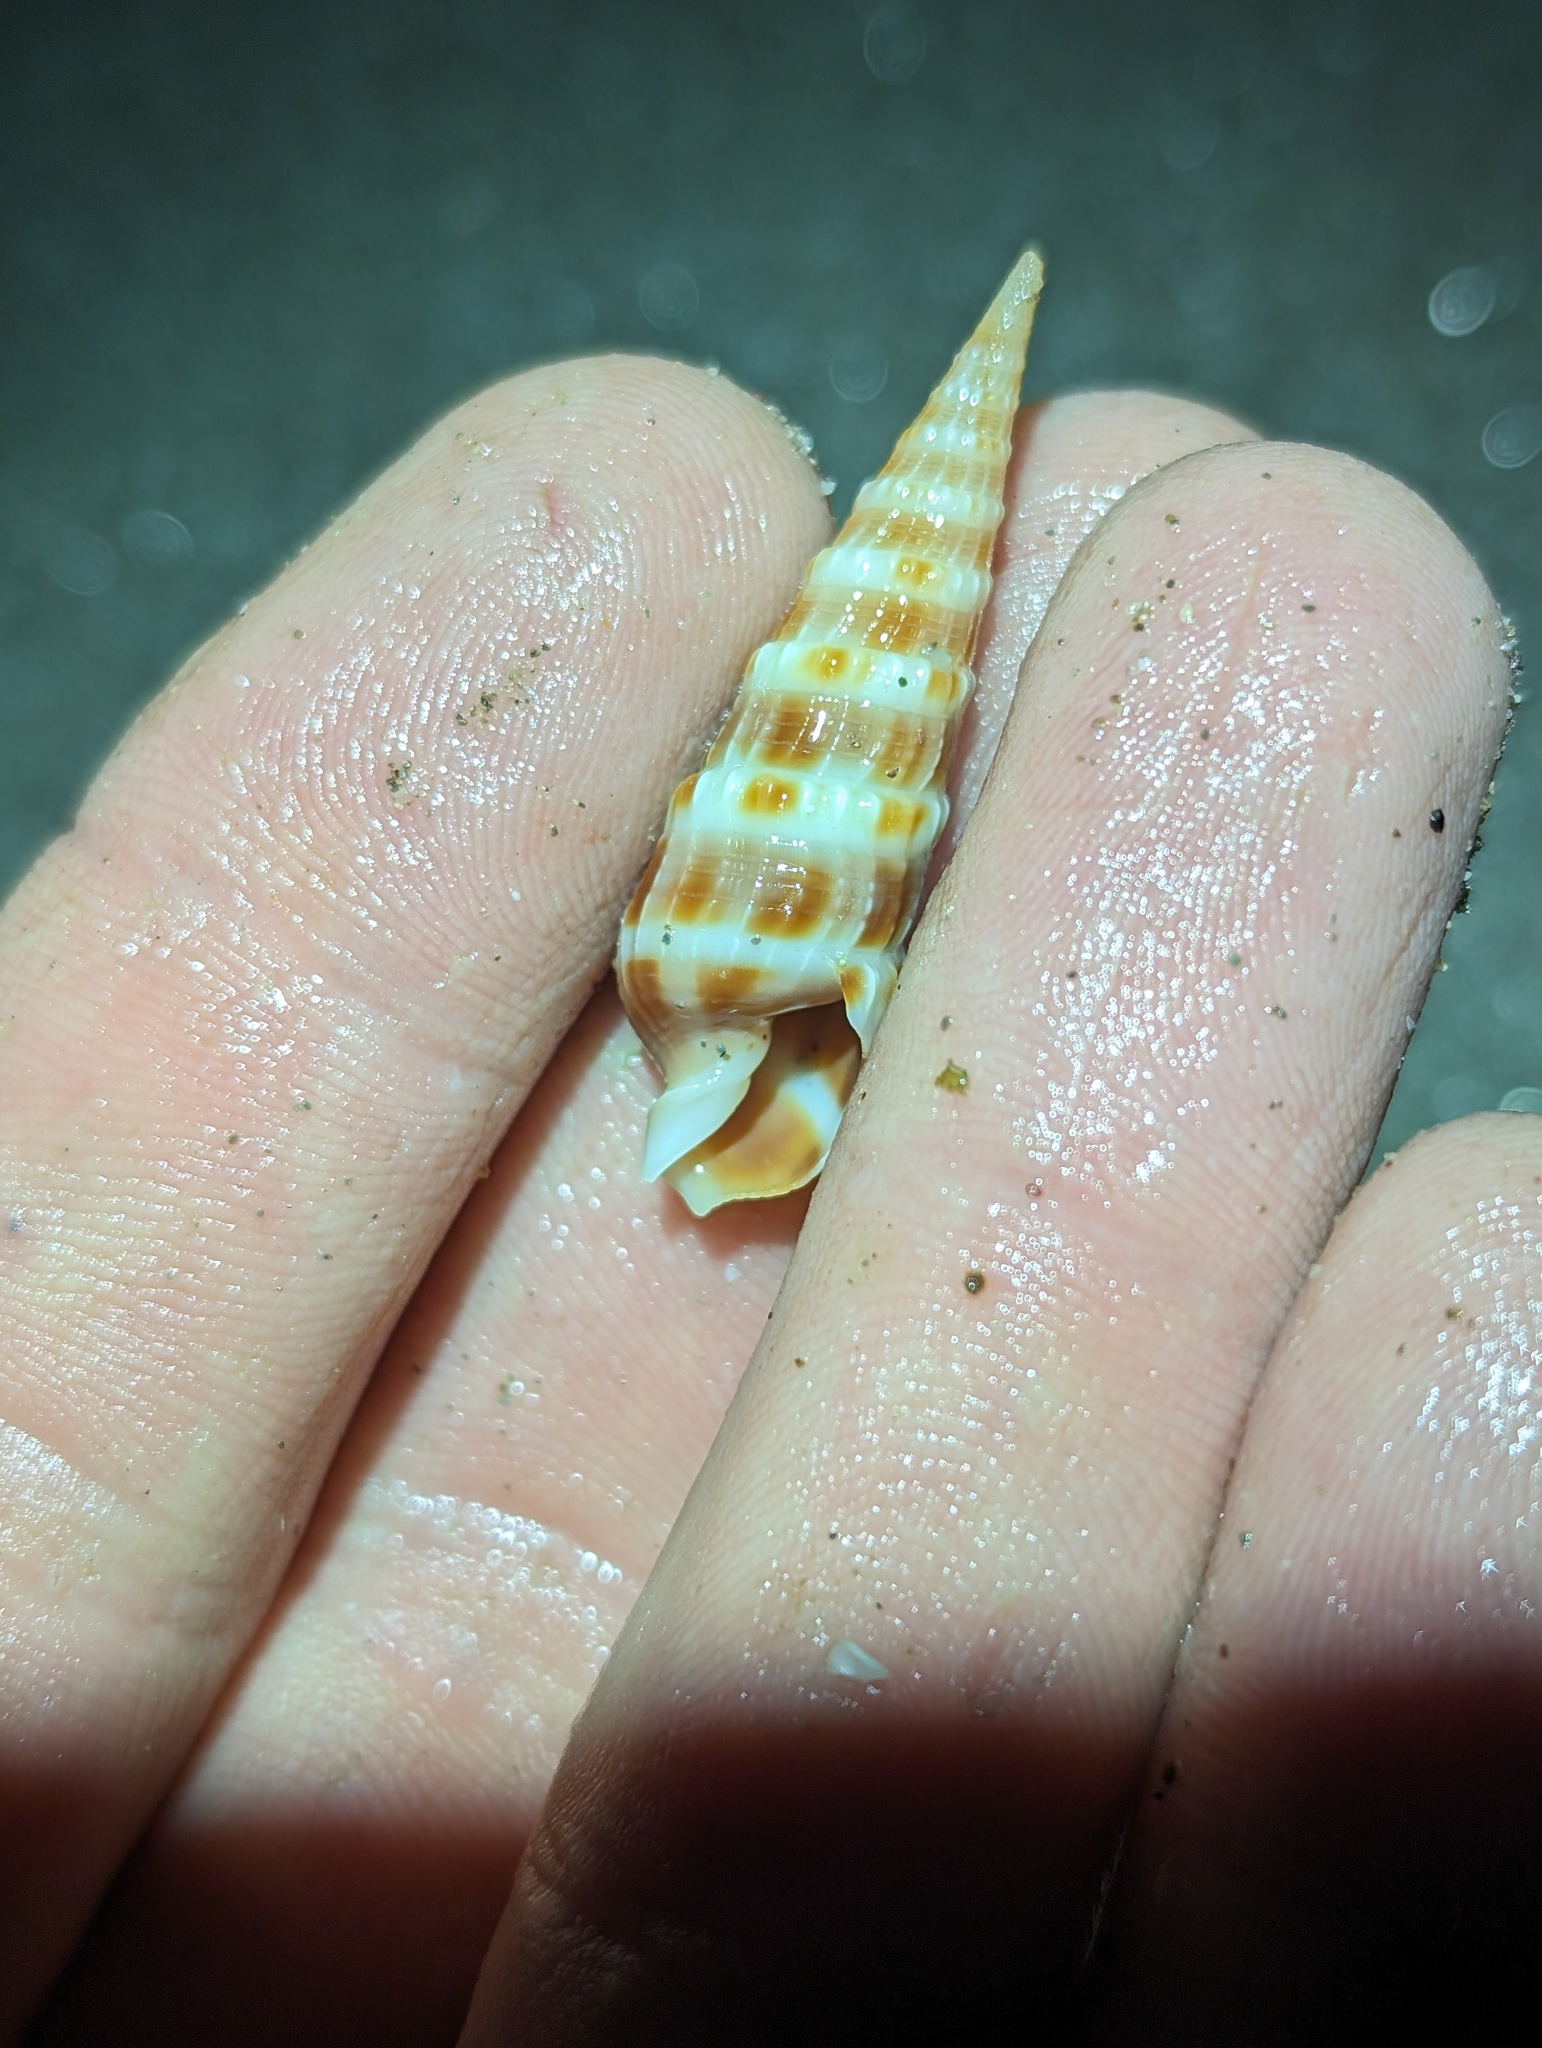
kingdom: Animalia
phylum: Mollusca
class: Gastropoda
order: Neogastropoda
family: Terebridae
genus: Neoterebra
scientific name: Neoterebra variegata
